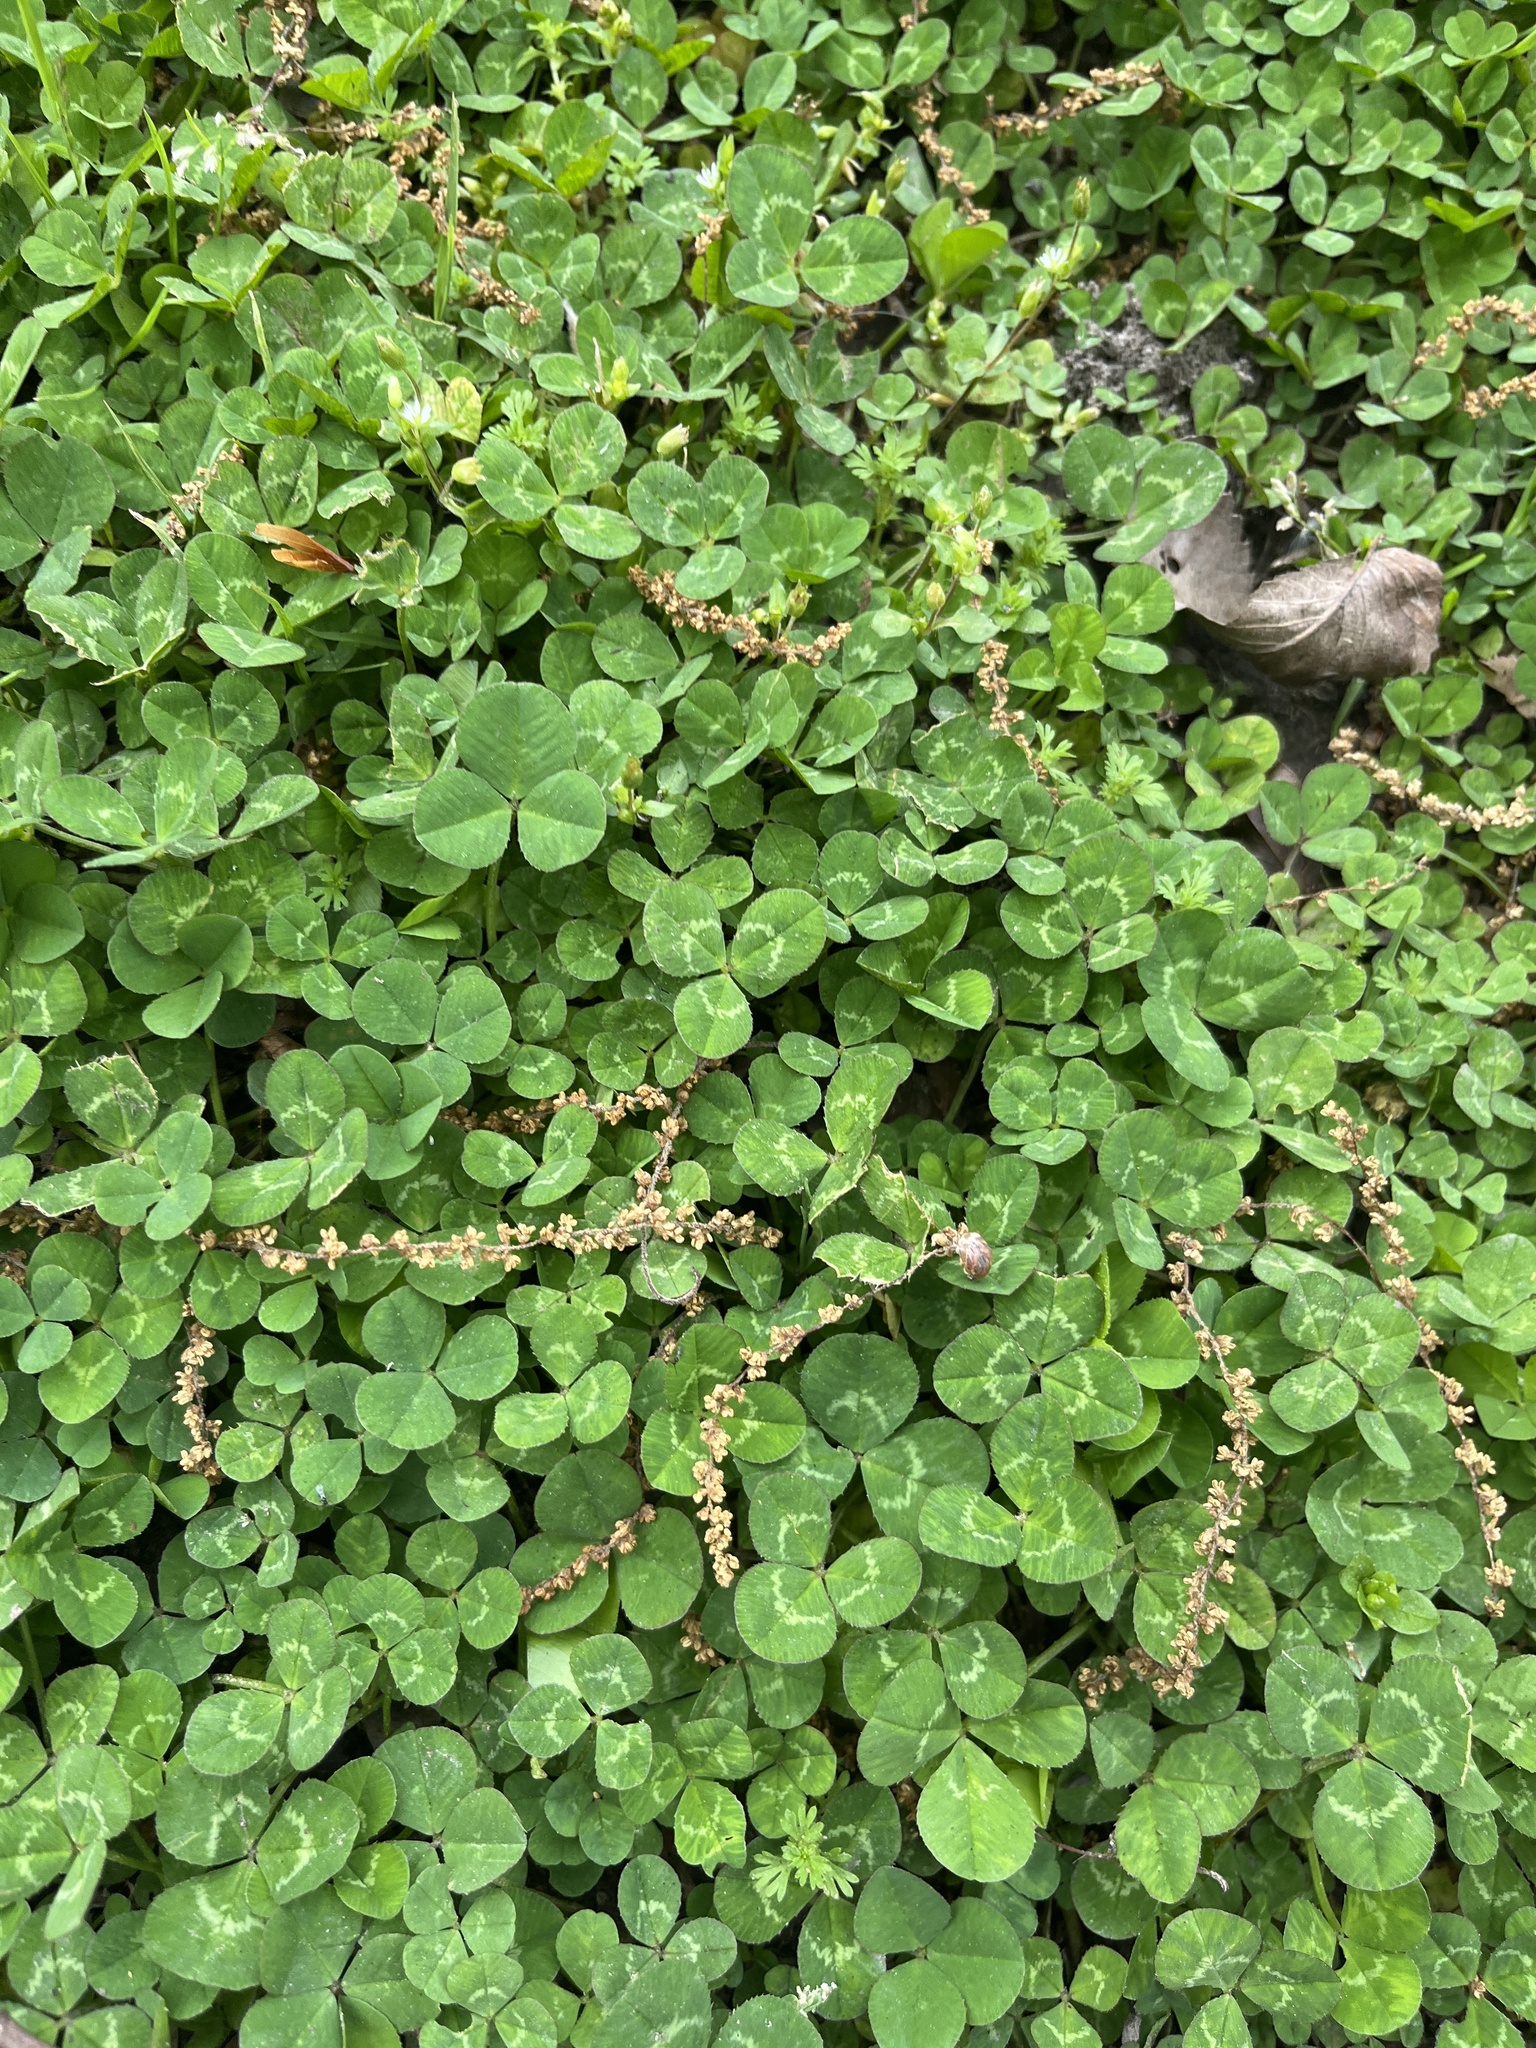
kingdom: Plantae
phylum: Tracheophyta
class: Magnoliopsida
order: Fabales
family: Fabaceae
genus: Trifolium
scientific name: Trifolium repens
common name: White clover
